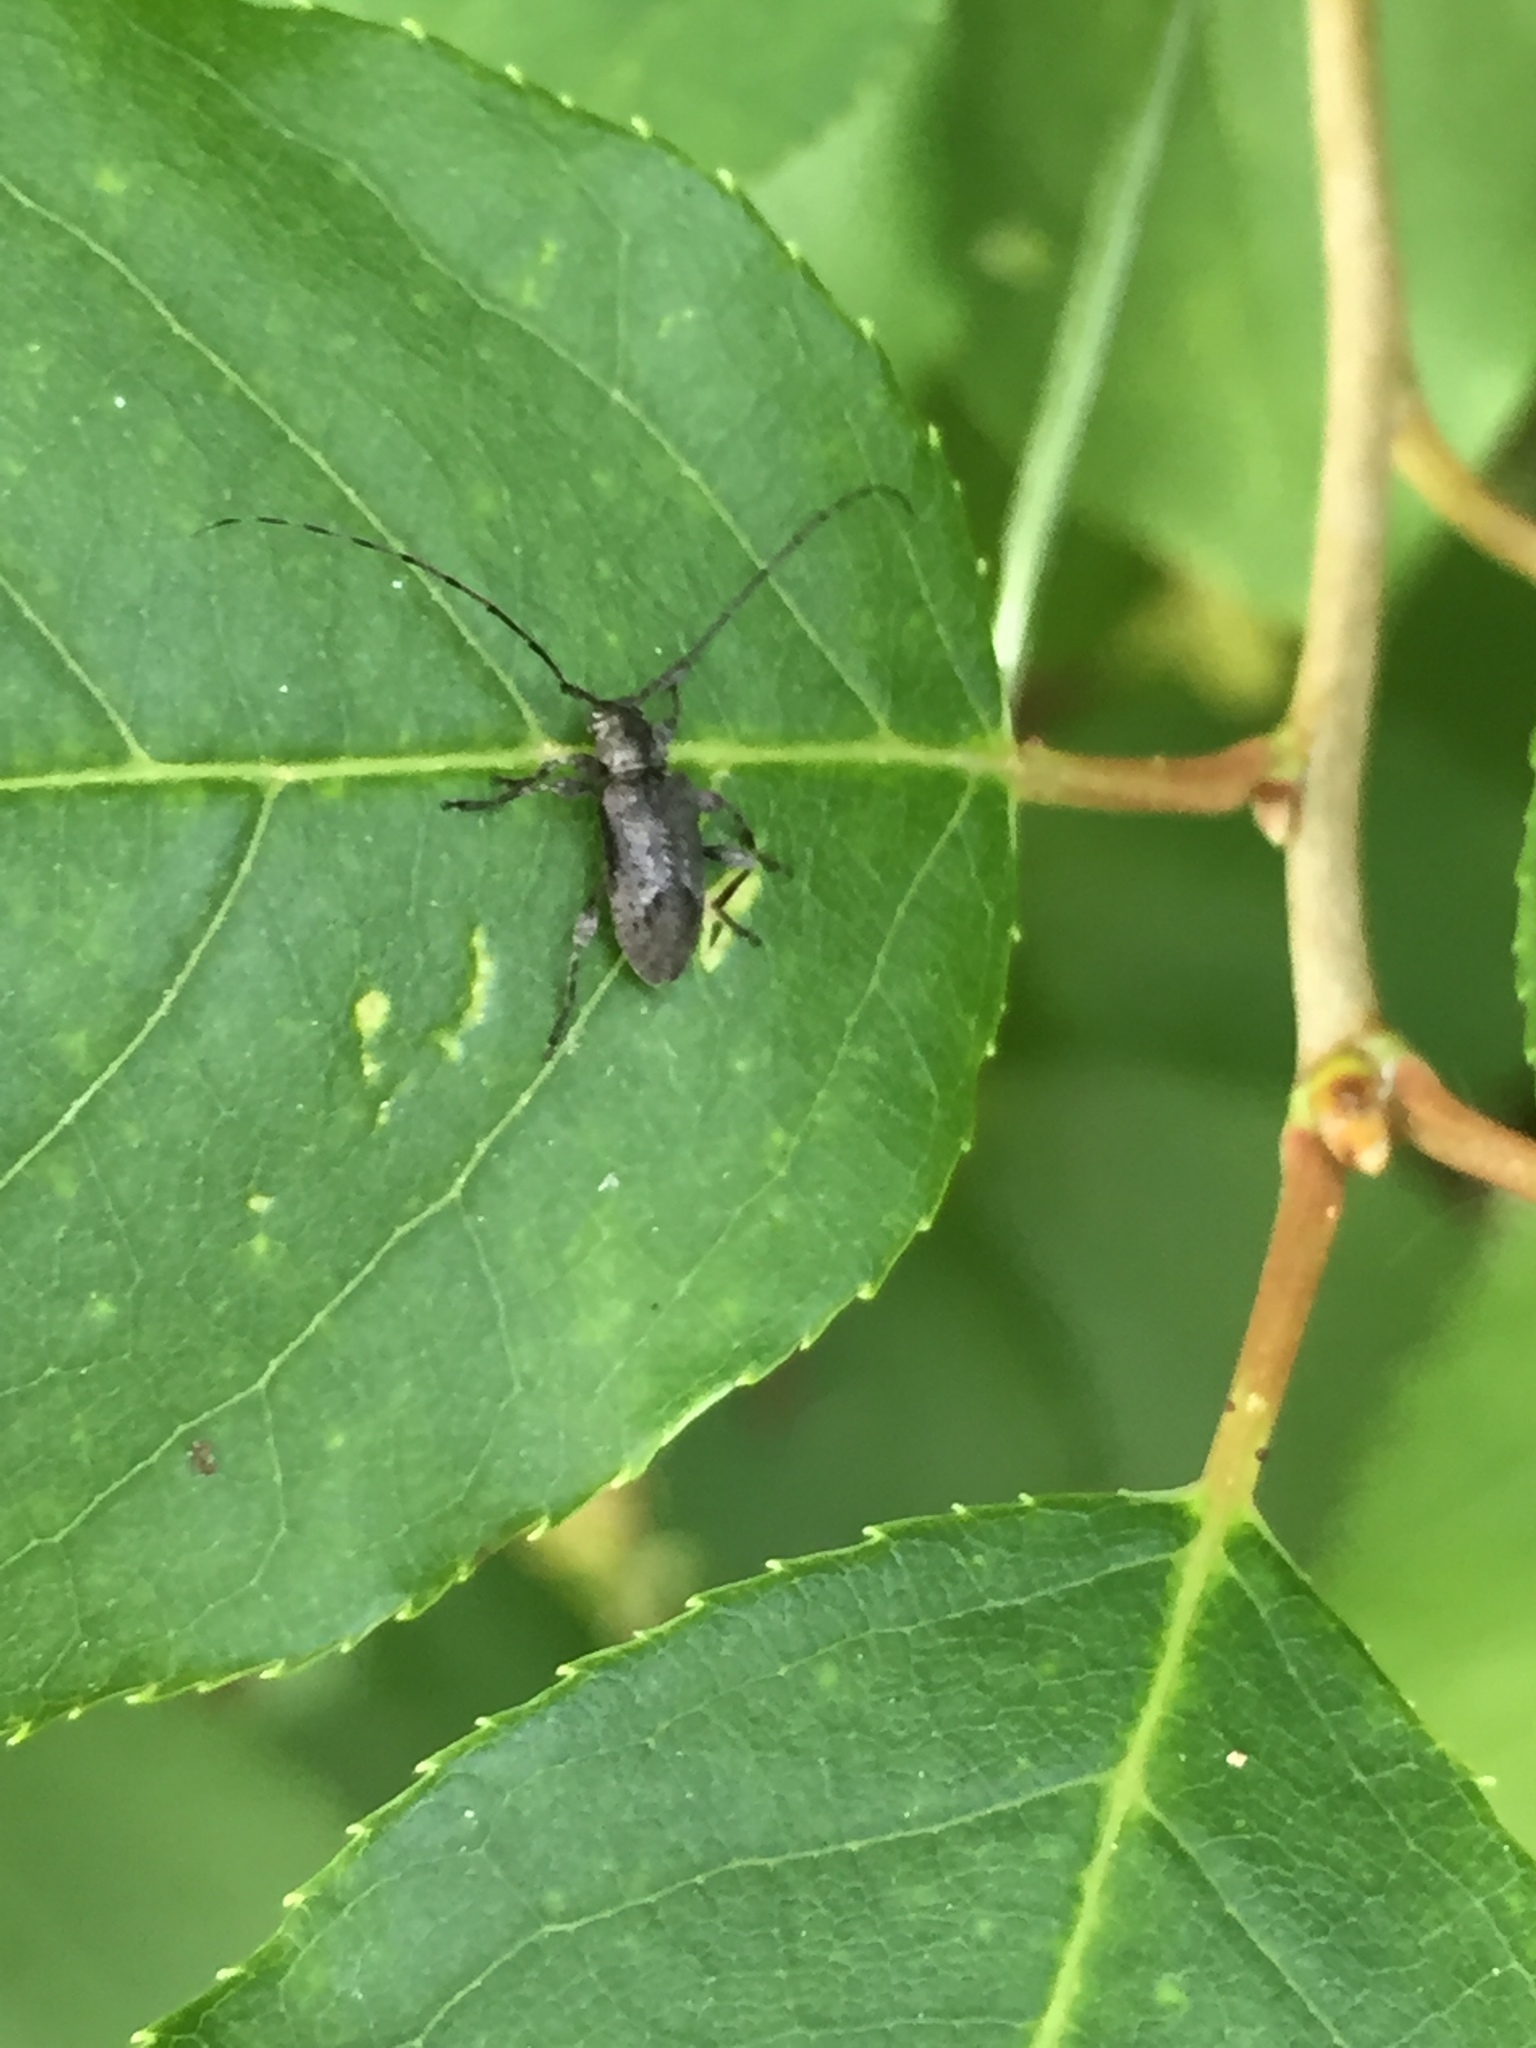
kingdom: Animalia
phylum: Arthropoda
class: Insecta
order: Coleoptera
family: Cerambycidae
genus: Sternidius
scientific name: Sternidius alpha
